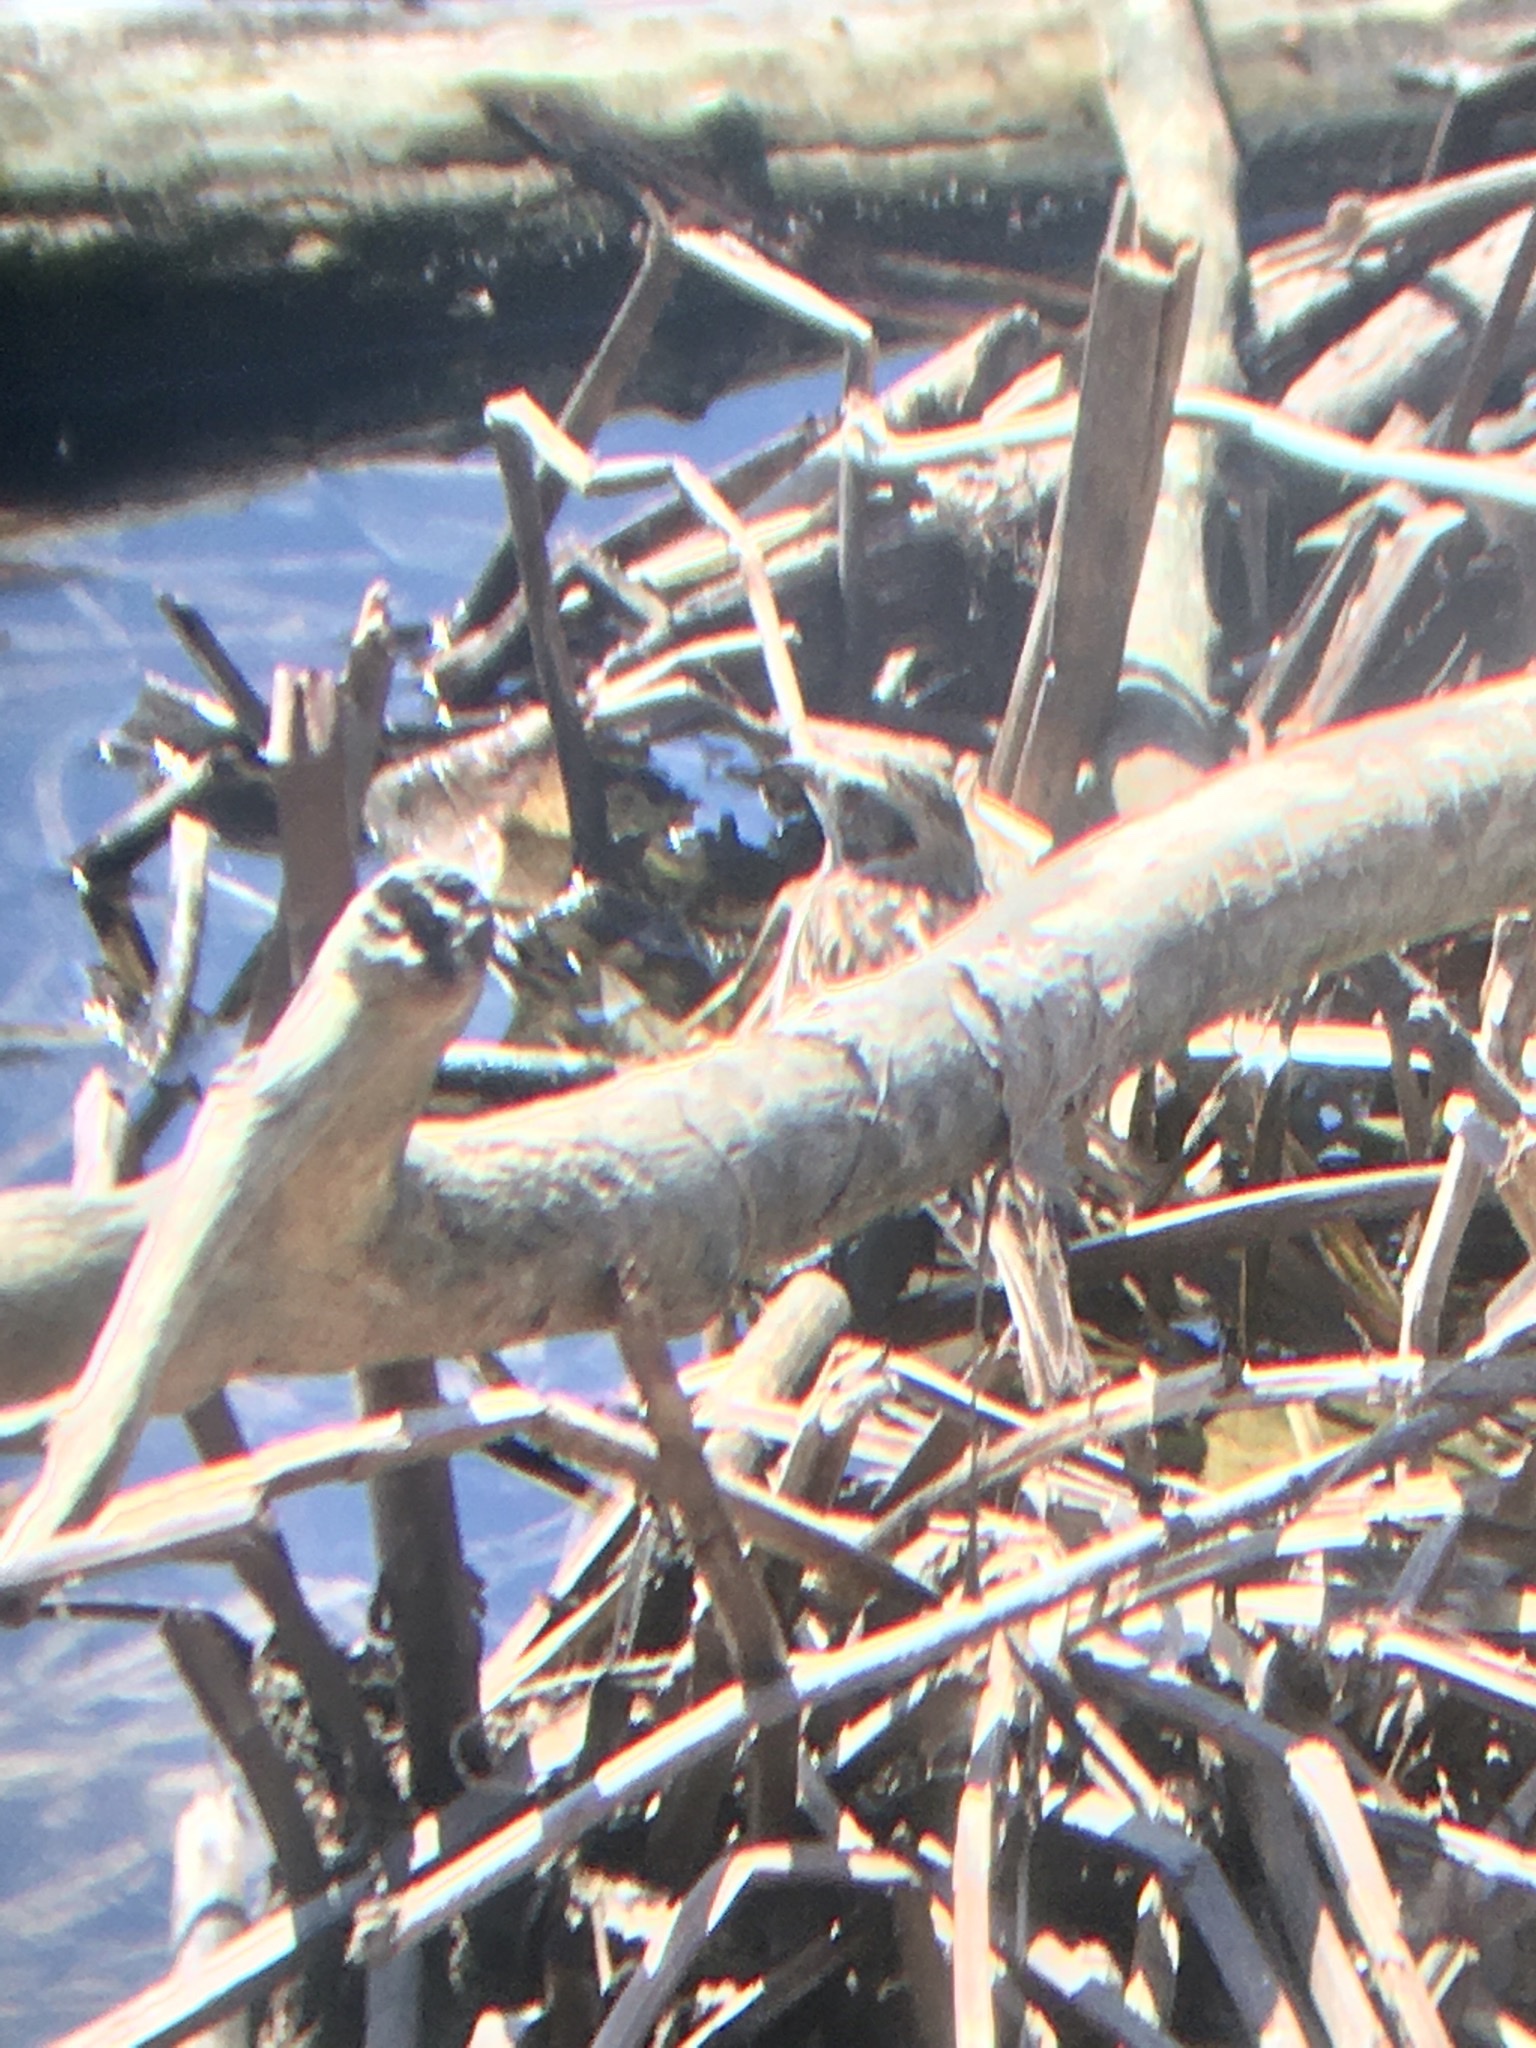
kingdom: Animalia
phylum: Chordata
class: Aves
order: Passeriformes
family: Calcariidae
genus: Calcarius
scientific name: Calcarius lapponicus
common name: Lapland longspur
